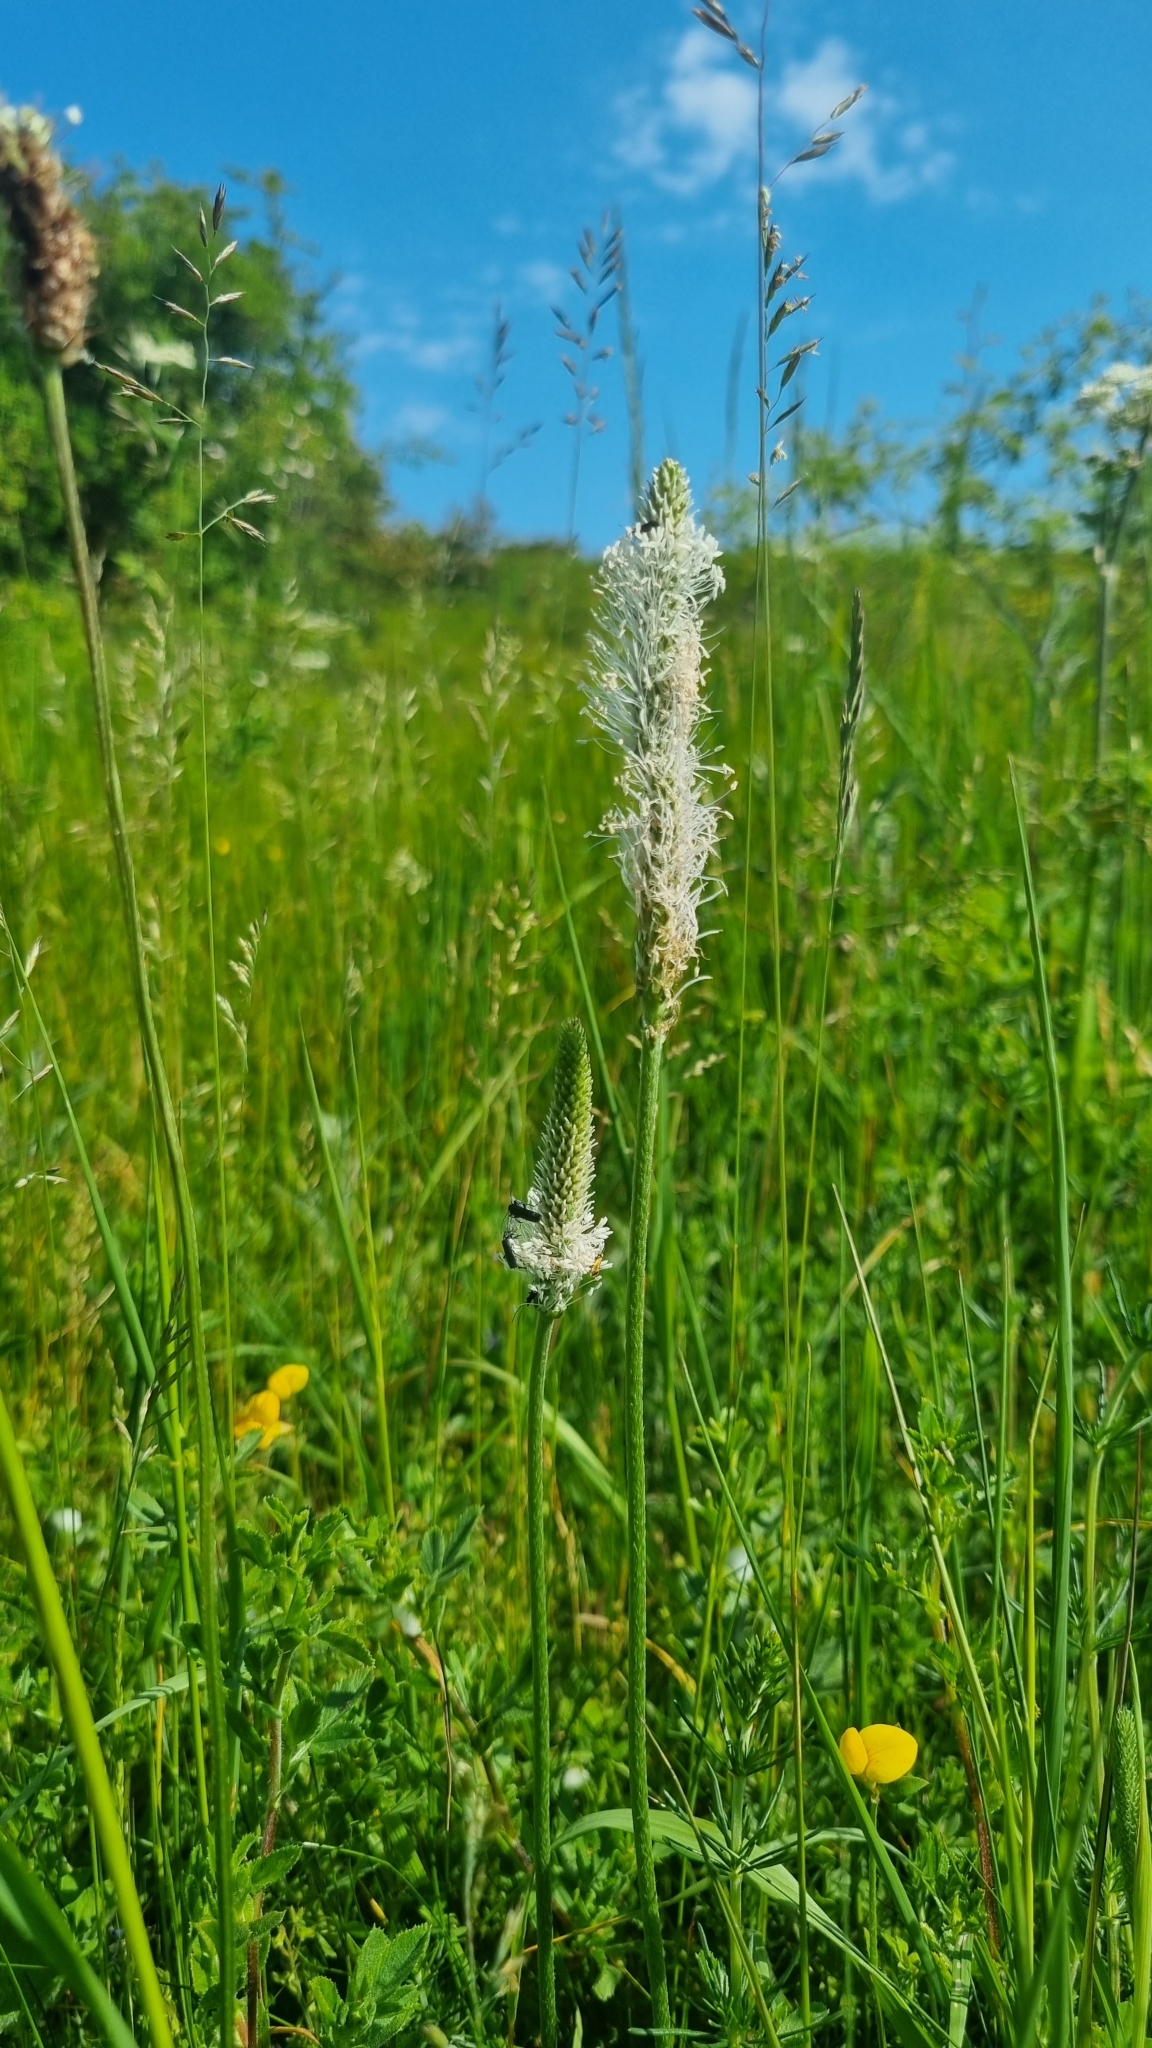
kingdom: Plantae
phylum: Tracheophyta
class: Magnoliopsida
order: Lamiales
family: Plantaginaceae
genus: Plantago
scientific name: Plantago media
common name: Hoary plantain
